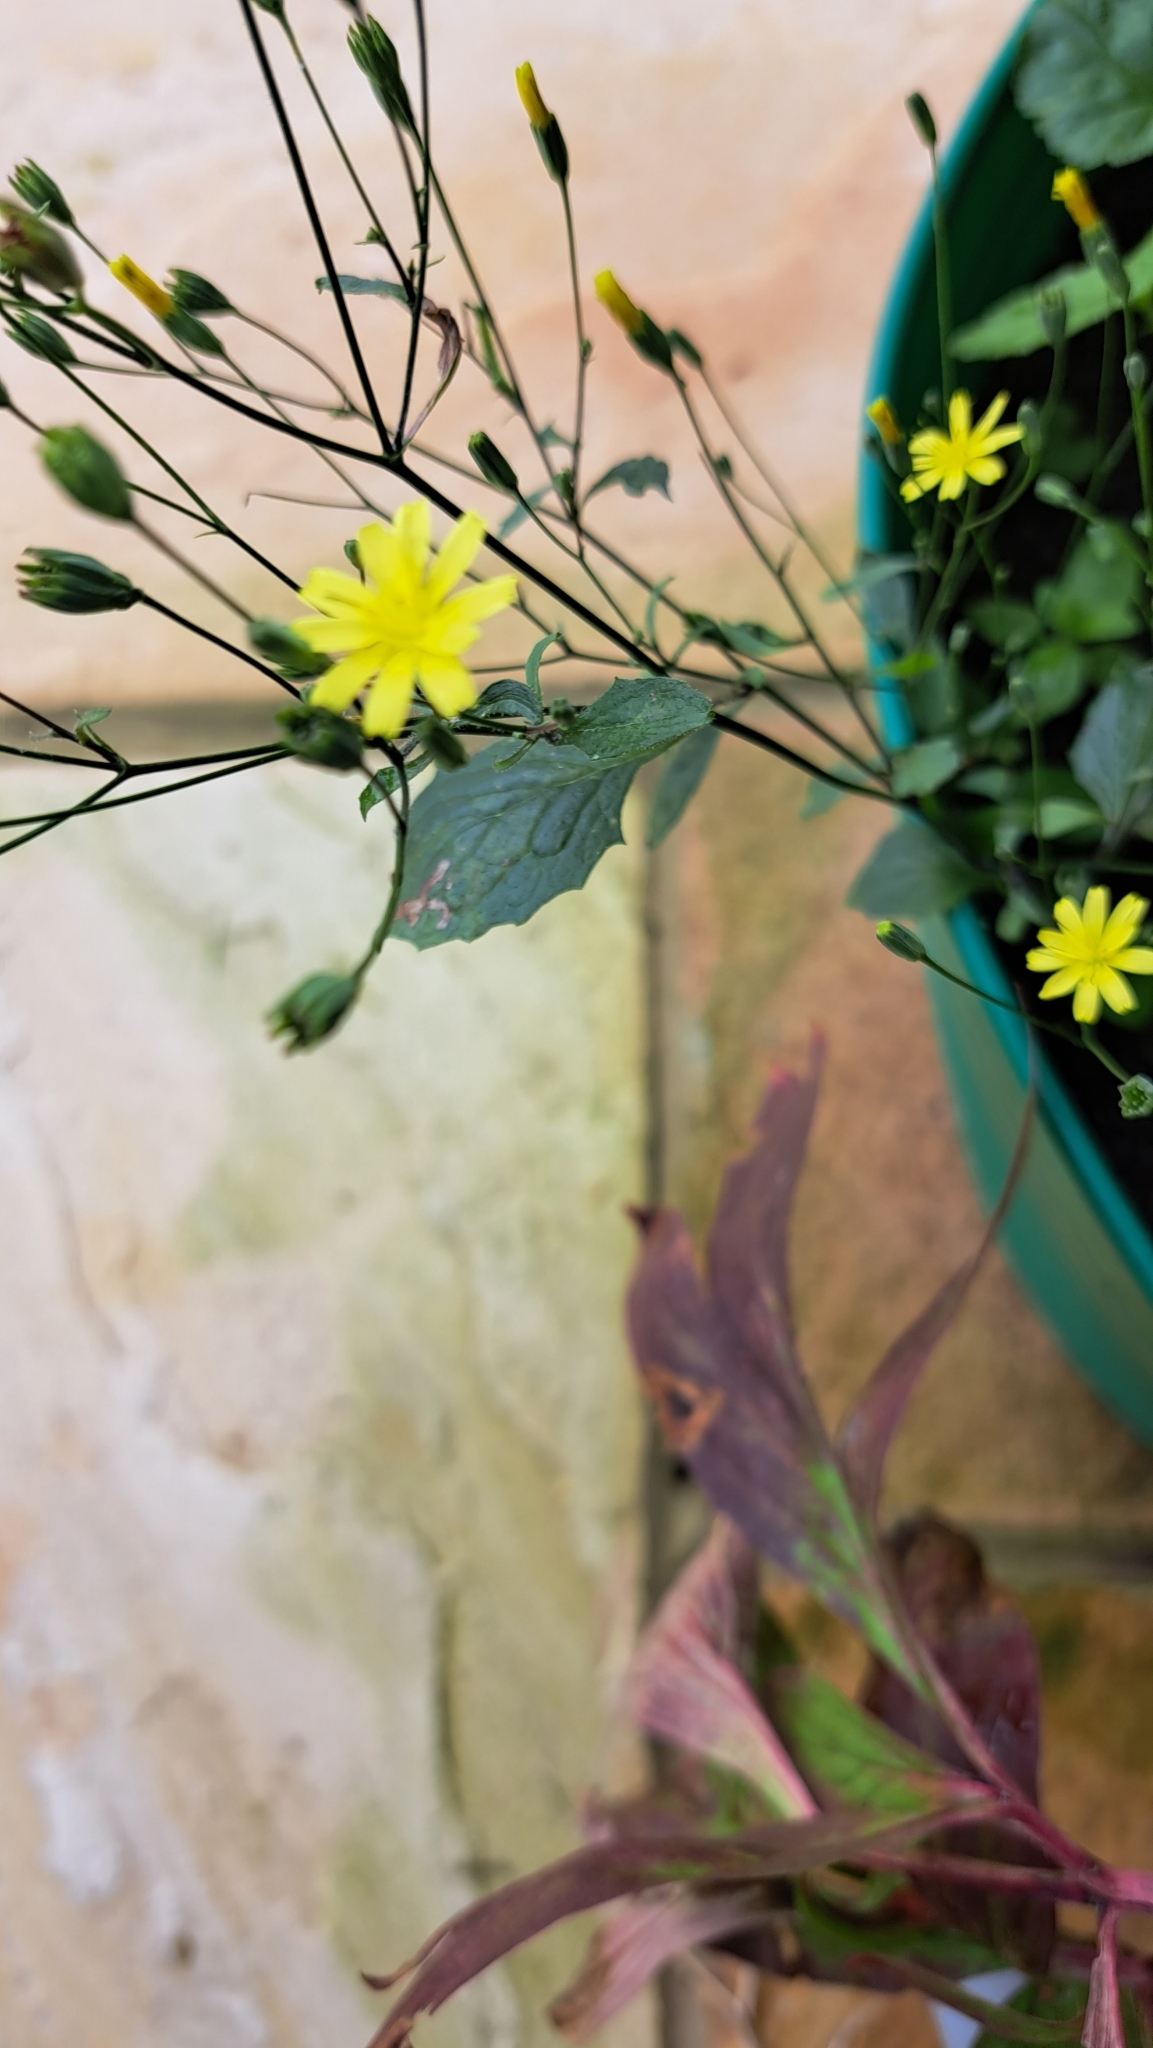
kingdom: Plantae
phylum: Tracheophyta
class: Magnoliopsida
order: Asterales
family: Asteraceae
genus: Lapsana
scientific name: Lapsana communis
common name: Nipplewort
